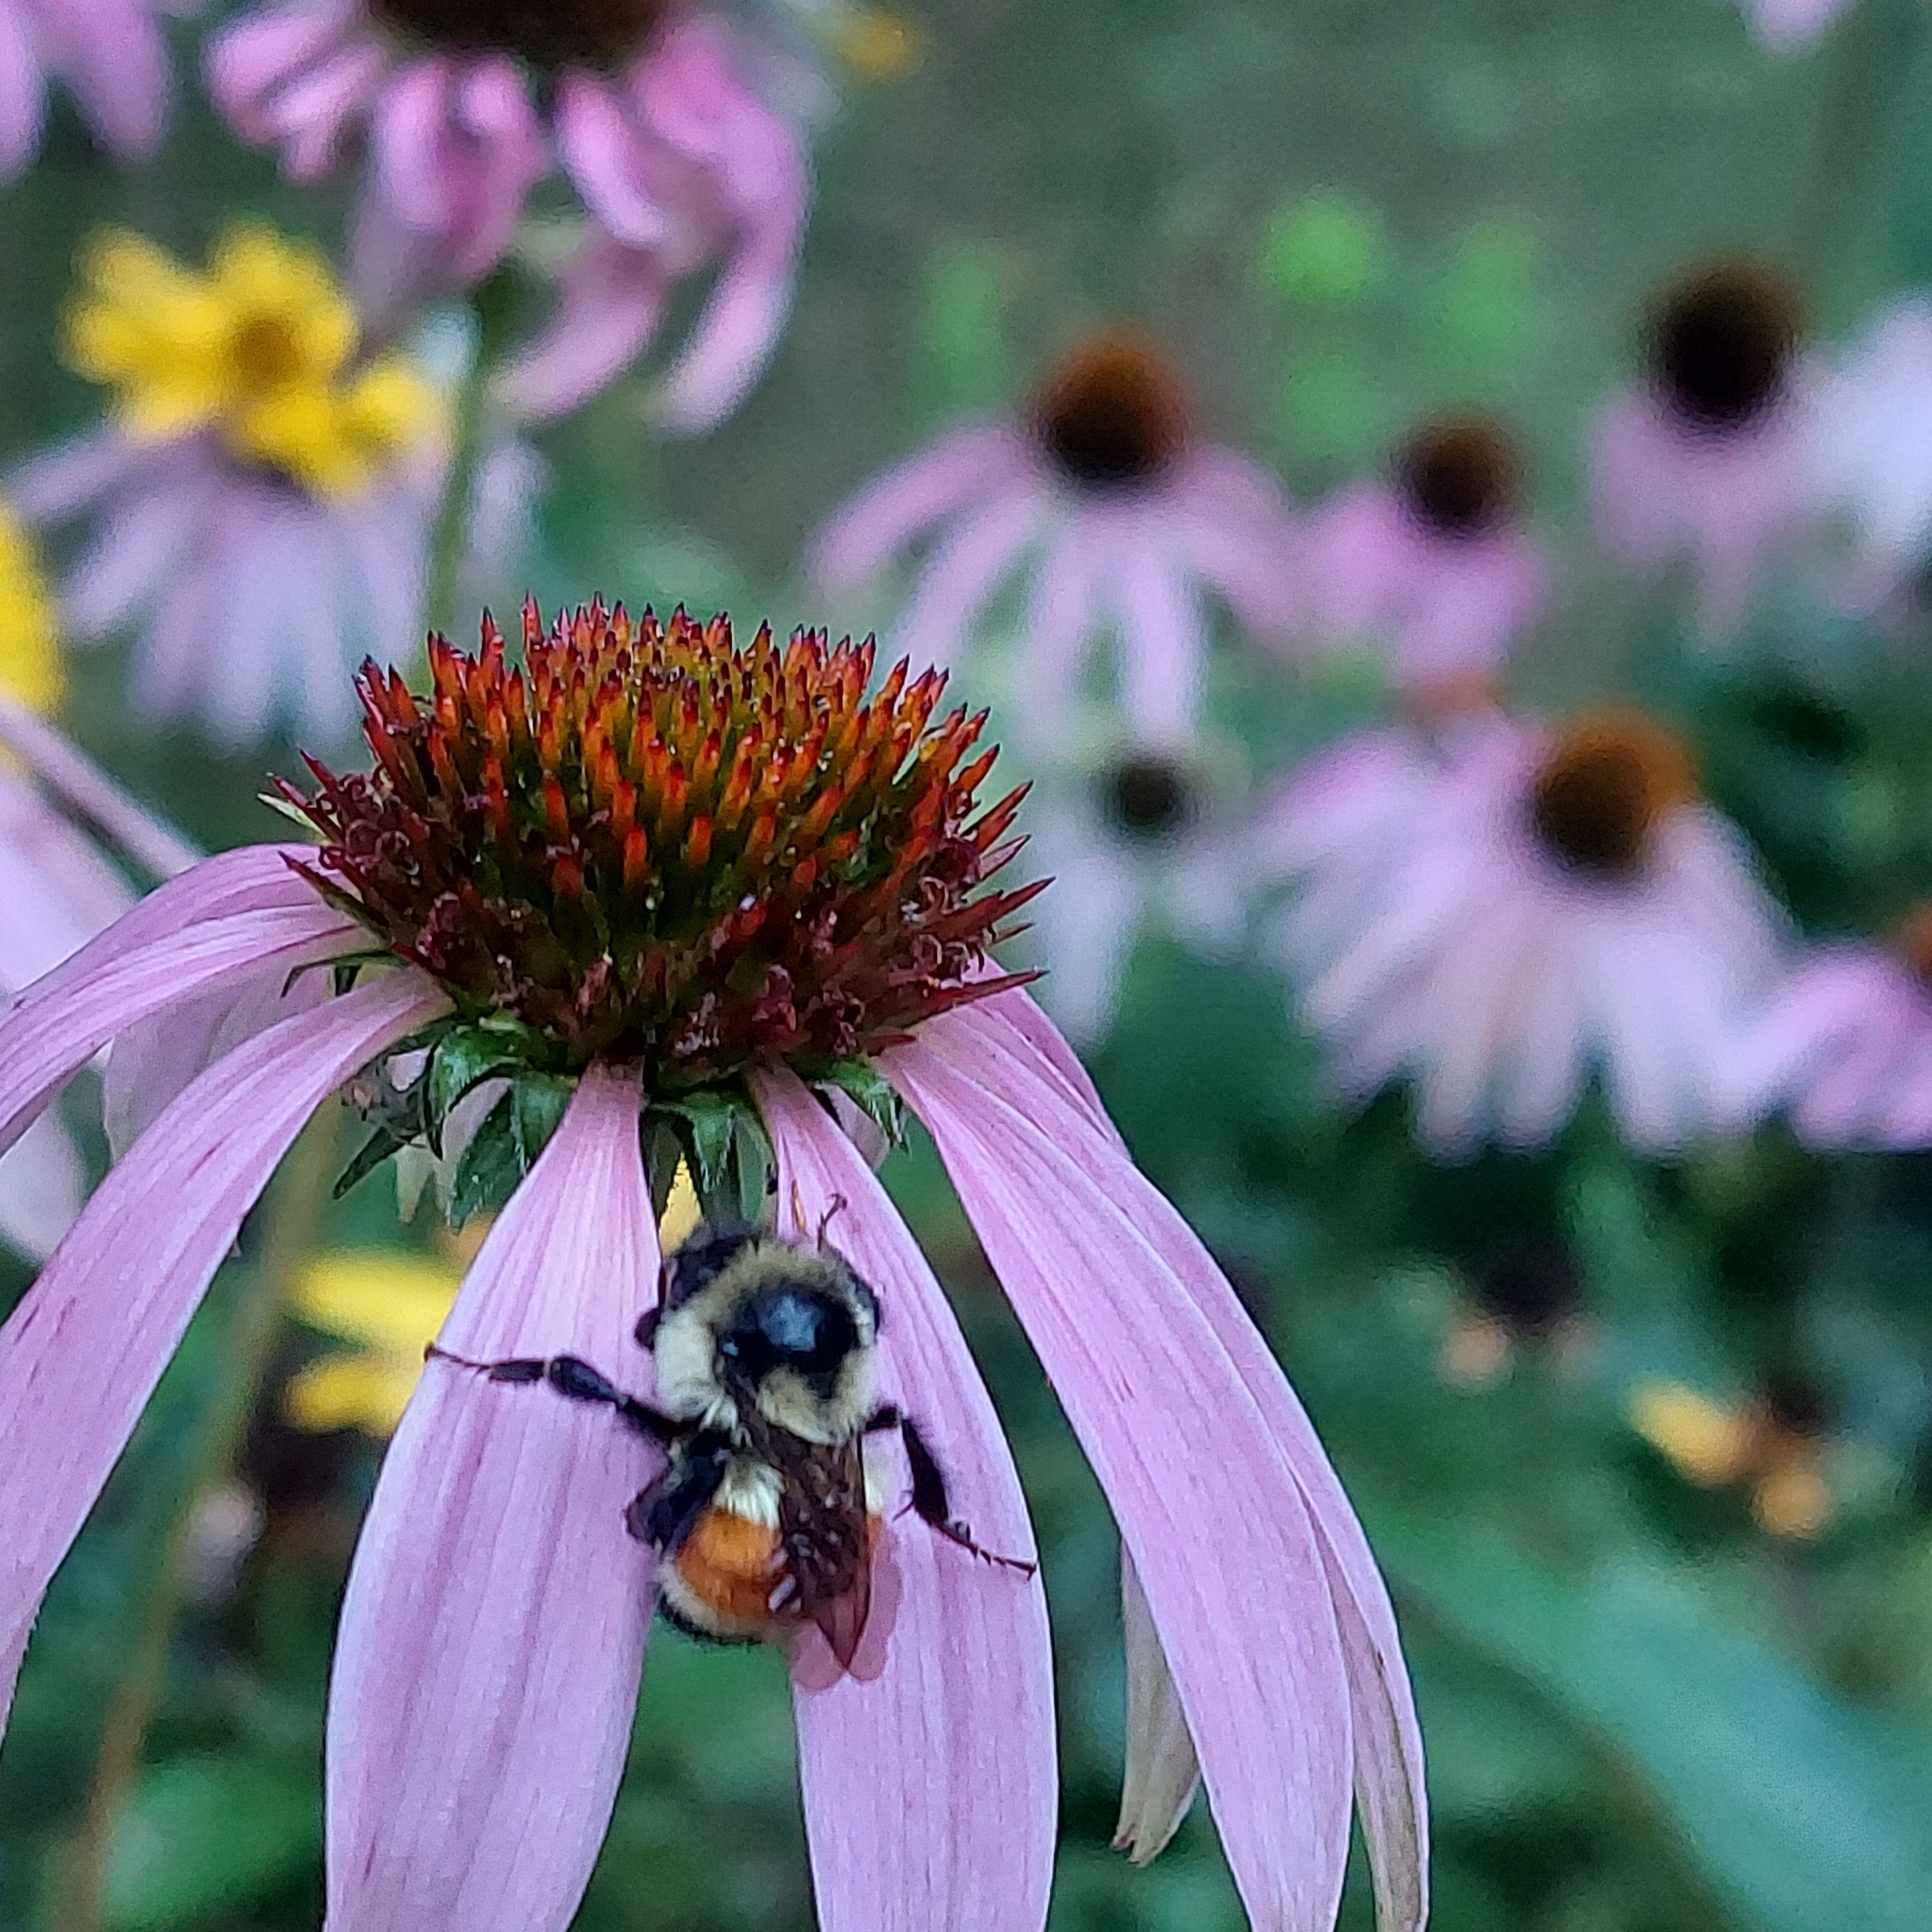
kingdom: Animalia
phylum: Arthropoda
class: Insecta
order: Hymenoptera
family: Apidae
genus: Bombus
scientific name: Bombus ternarius
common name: Tri-colored bumble bee
